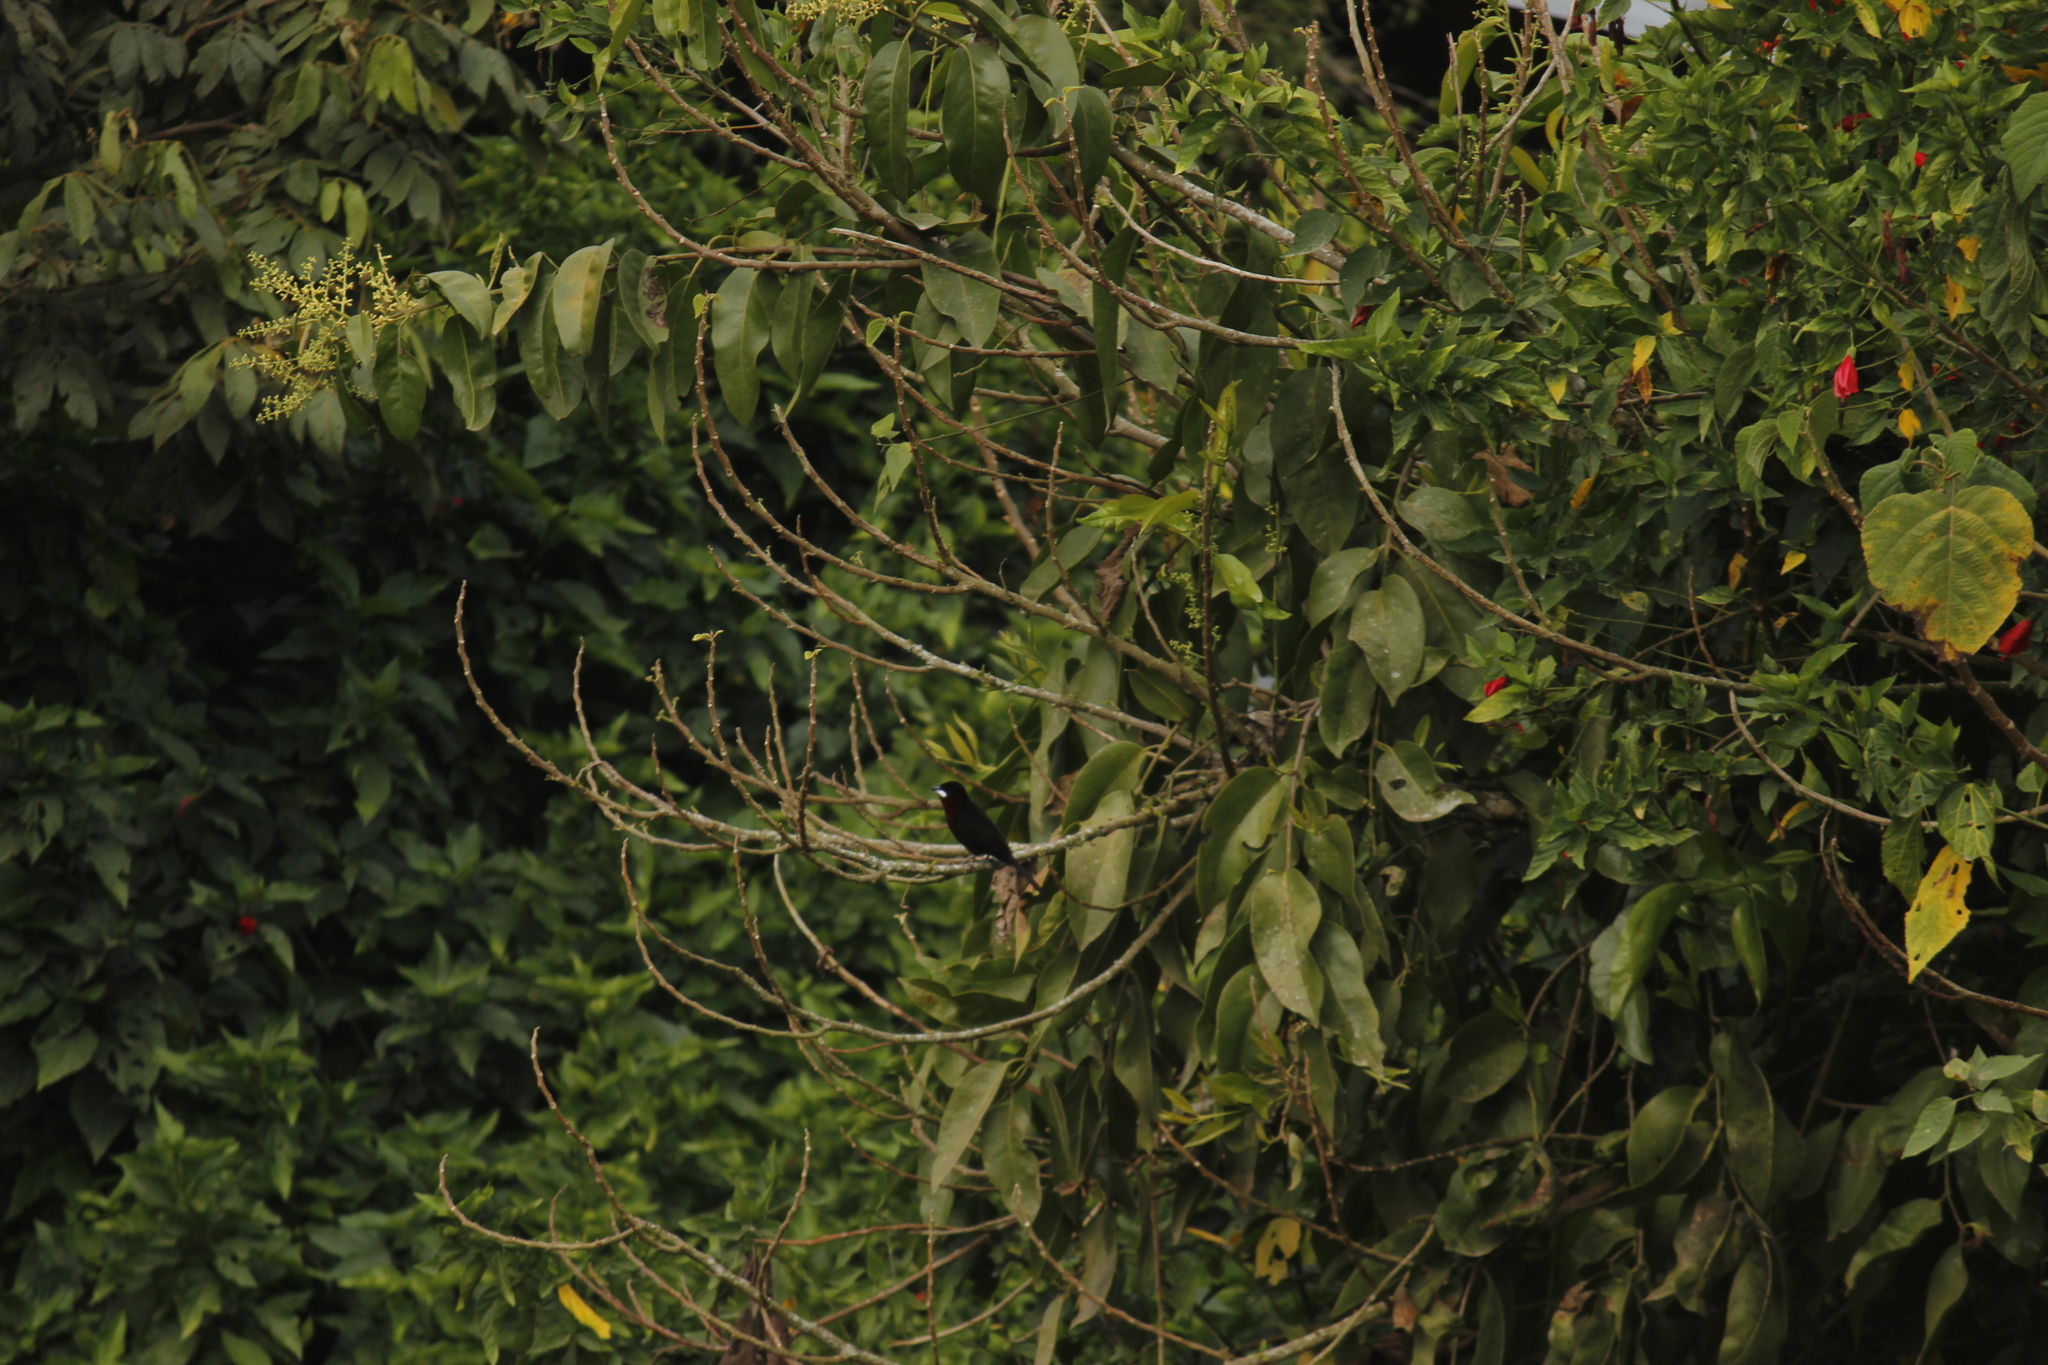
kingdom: Animalia
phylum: Chordata
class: Aves
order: Passeriformes
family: Thraupidae
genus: Ramphocelus
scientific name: Ramphocelus carbo
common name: Silver-beaked tanager
